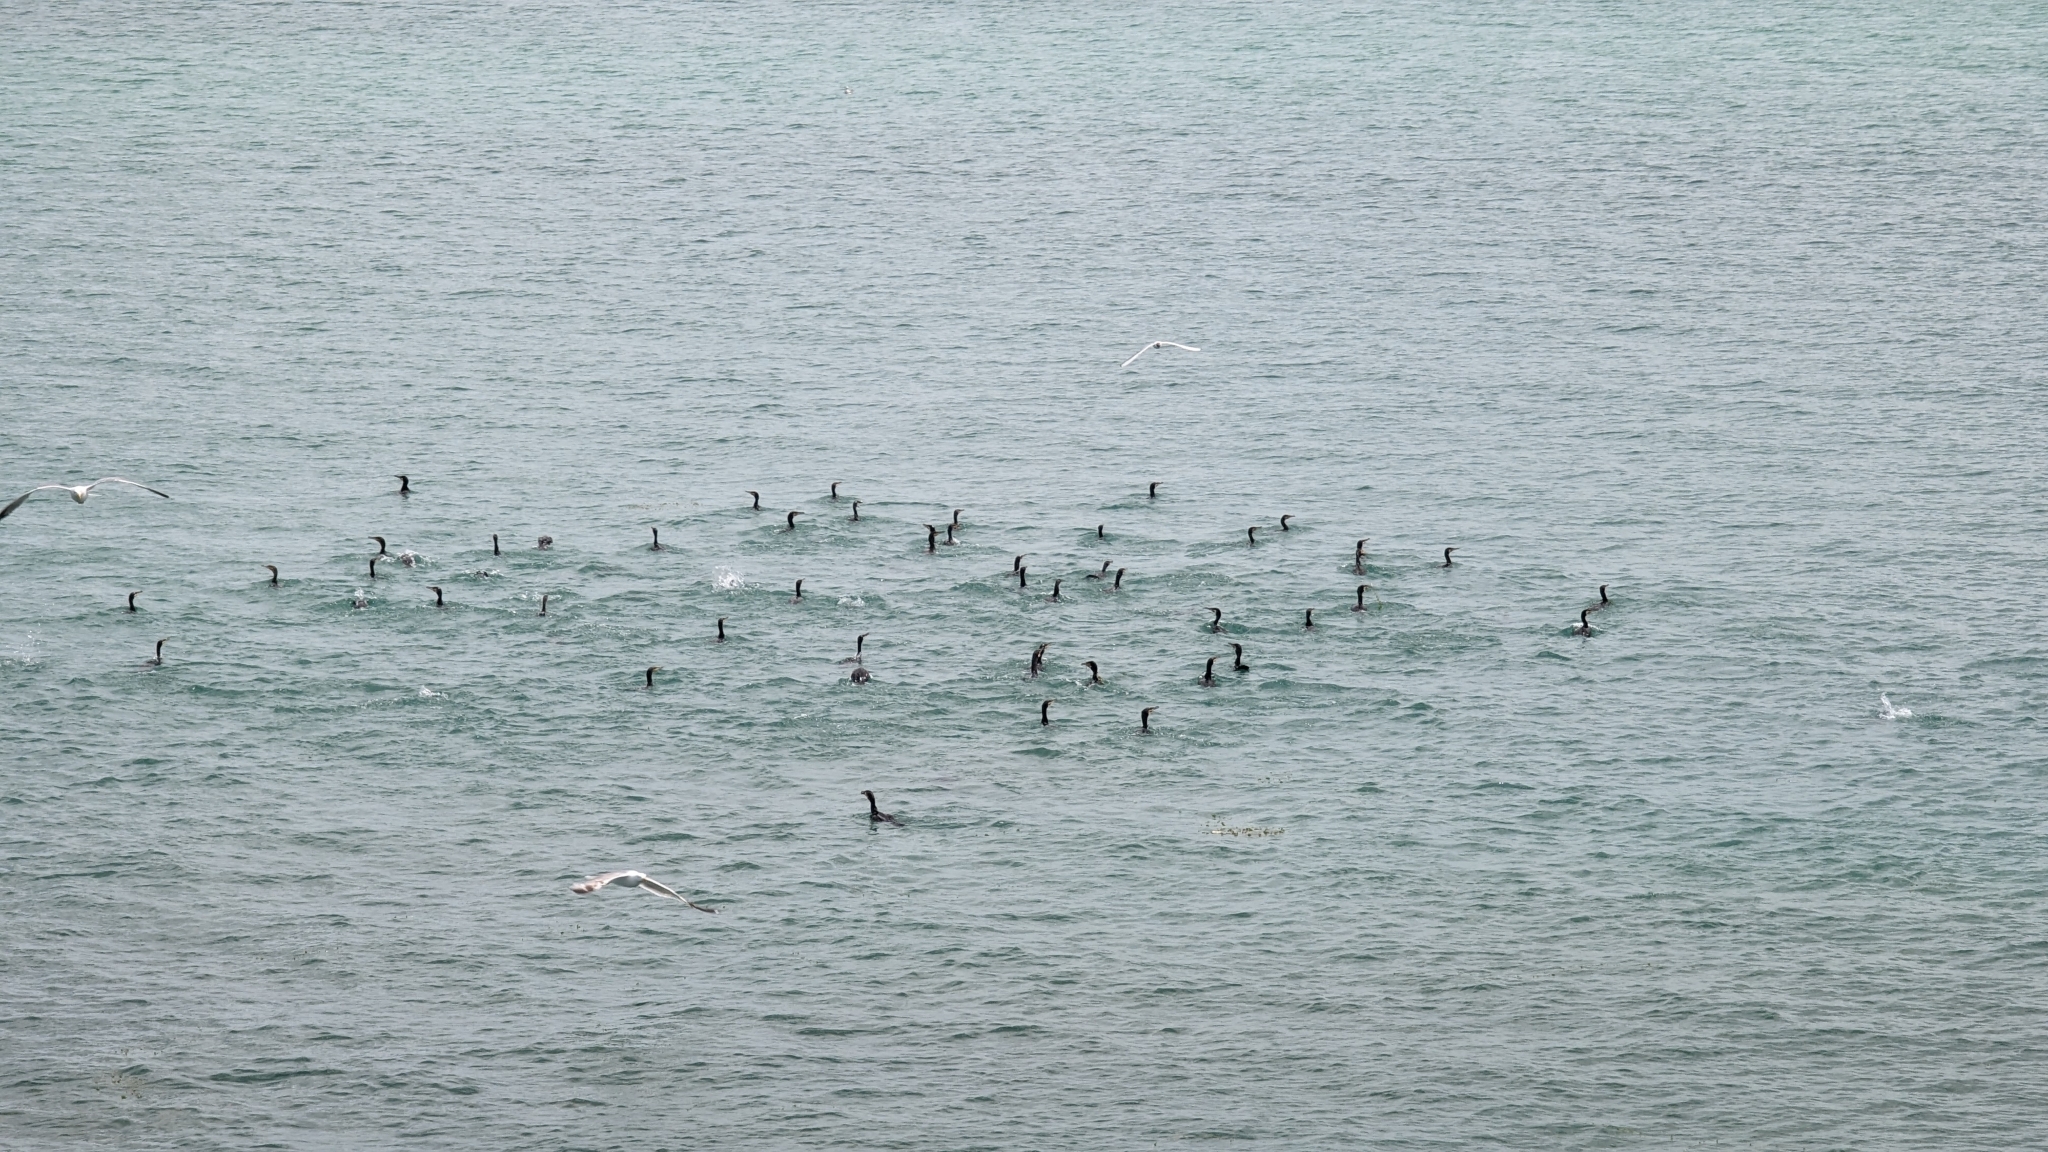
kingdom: Animalia
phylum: Chordata
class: Aves
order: Suliformes
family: Phalacrocoracidae
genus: Phalacrocorax
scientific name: Phalacrocorax carbo
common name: Great cormorant
